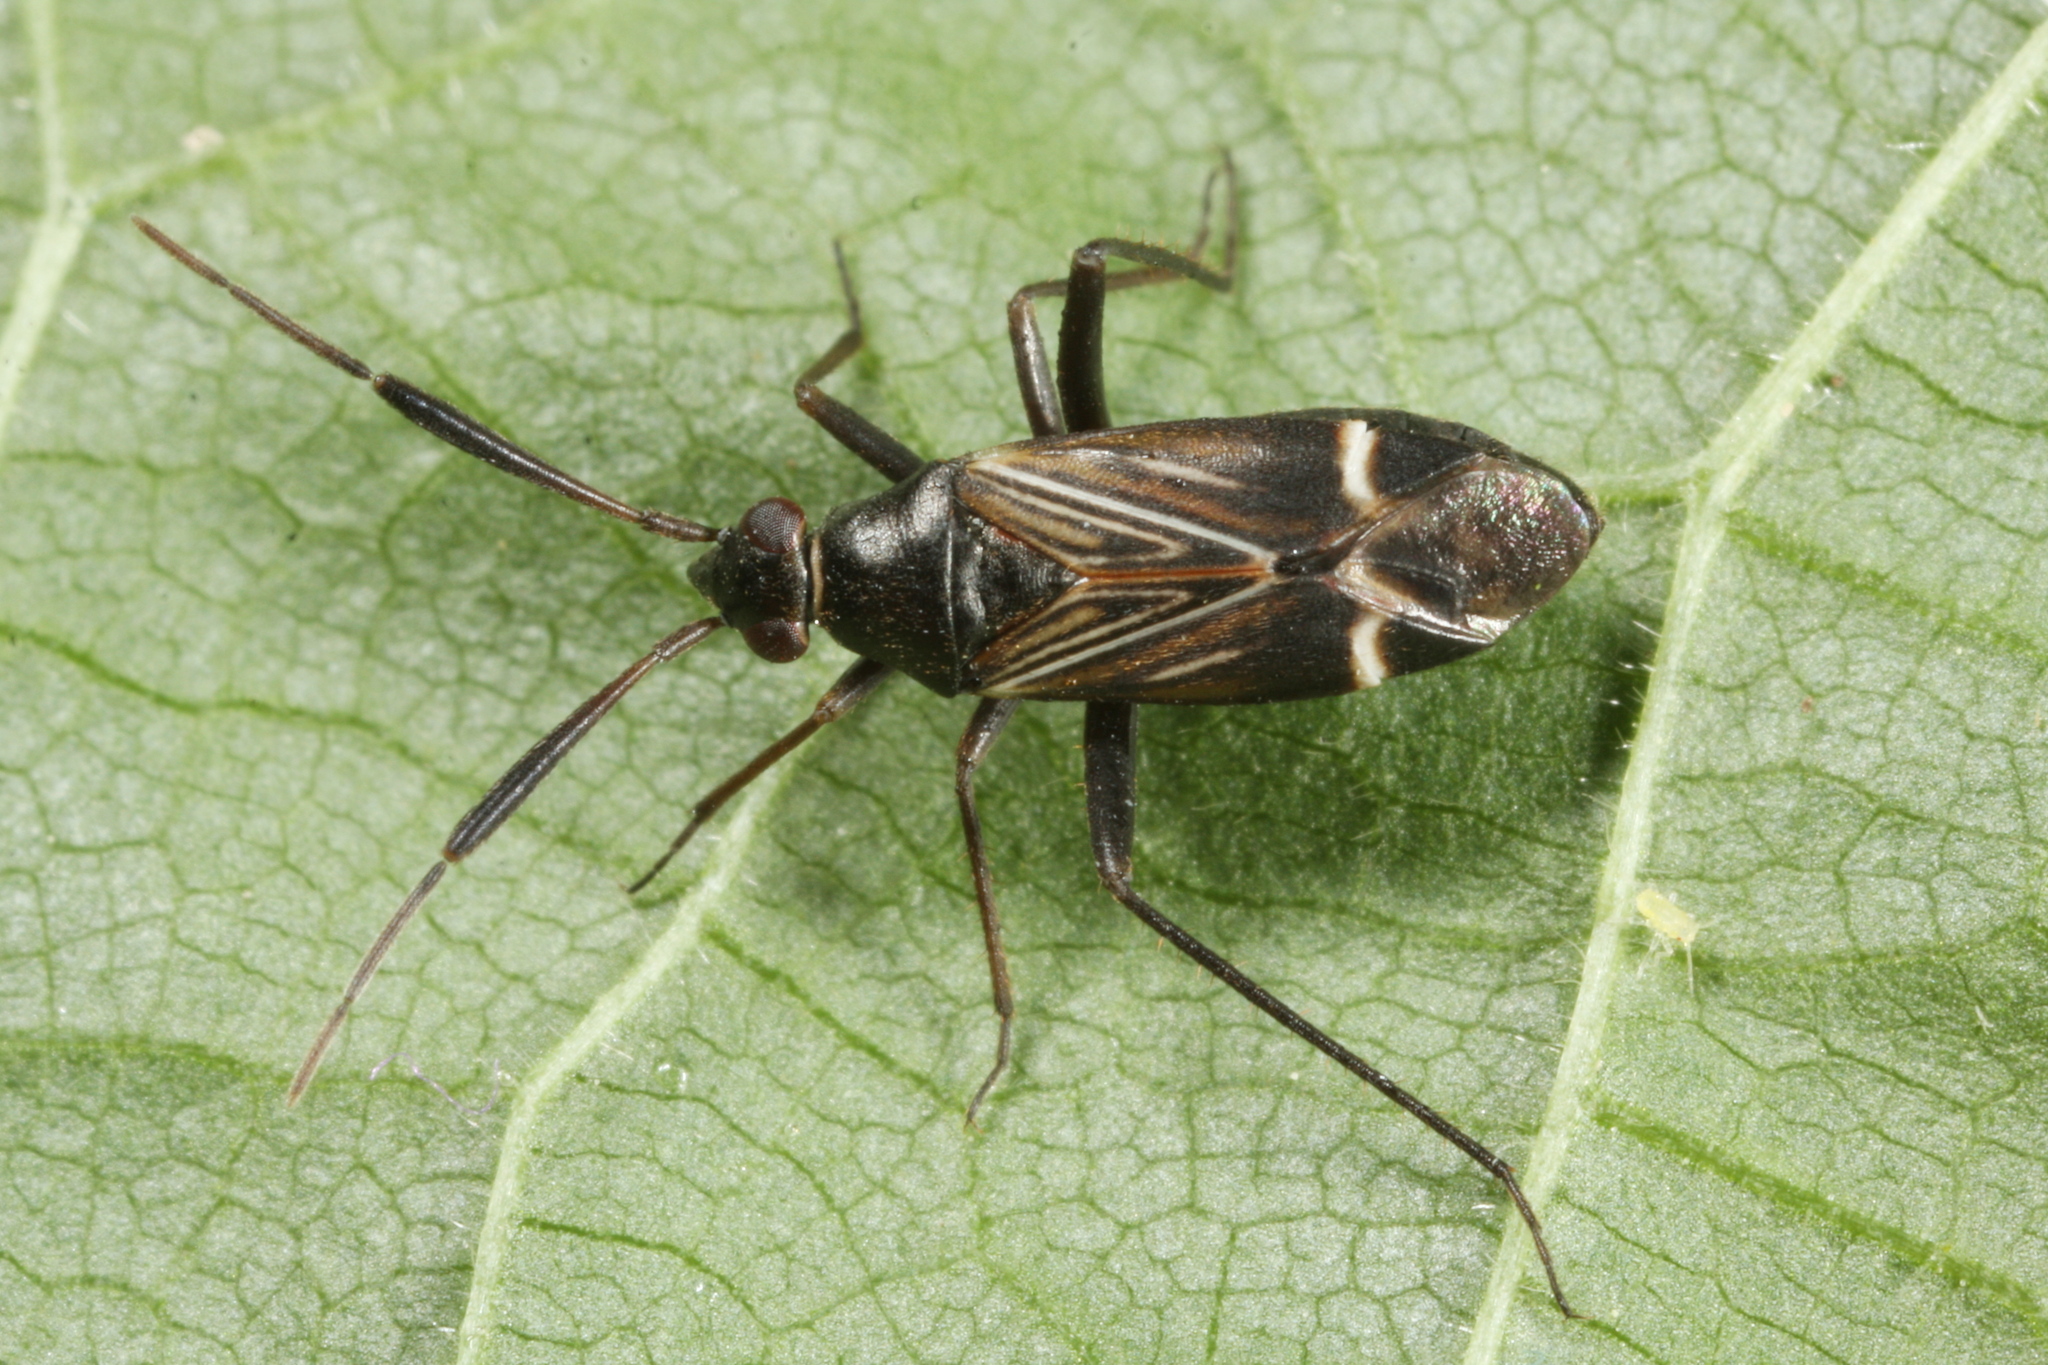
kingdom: Animalia
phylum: Arthropoda
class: Insecta
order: Hemiptera
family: Miridae
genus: Cremnocephalus
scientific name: Cremnocephalus alpestris
